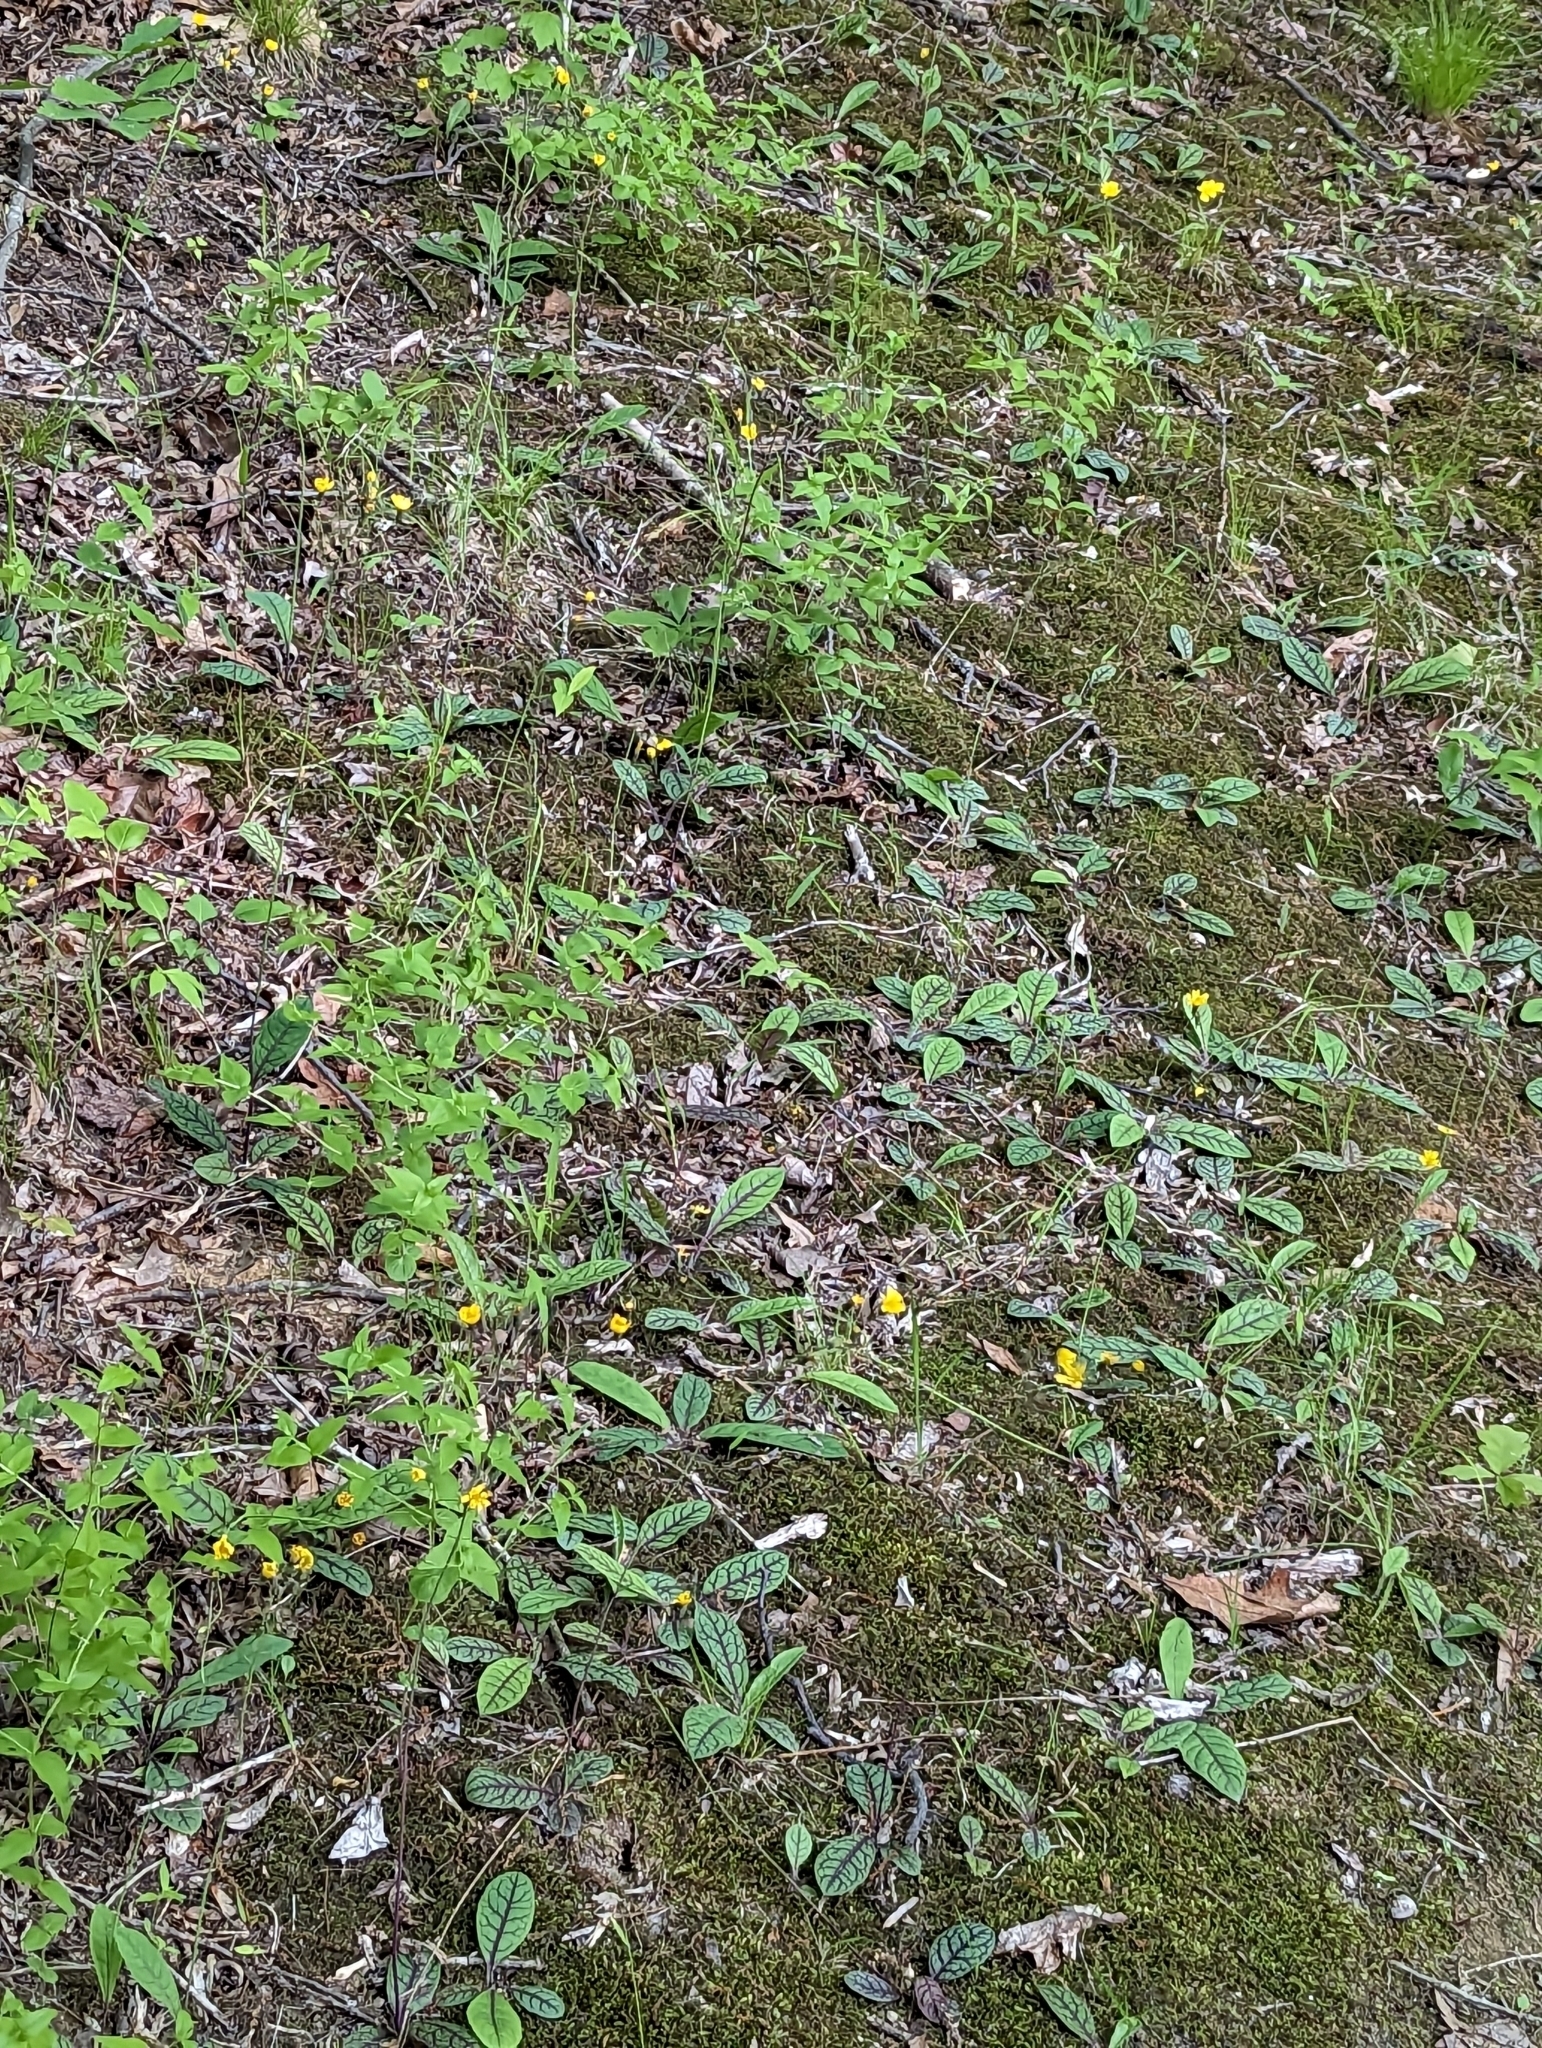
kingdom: Plantae
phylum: Tracheophyta
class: Magnoliopsida
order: Asterales
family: Asteraceae
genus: Hieracium
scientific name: Hieracium venosum
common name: Rattlesnake hawkweed
